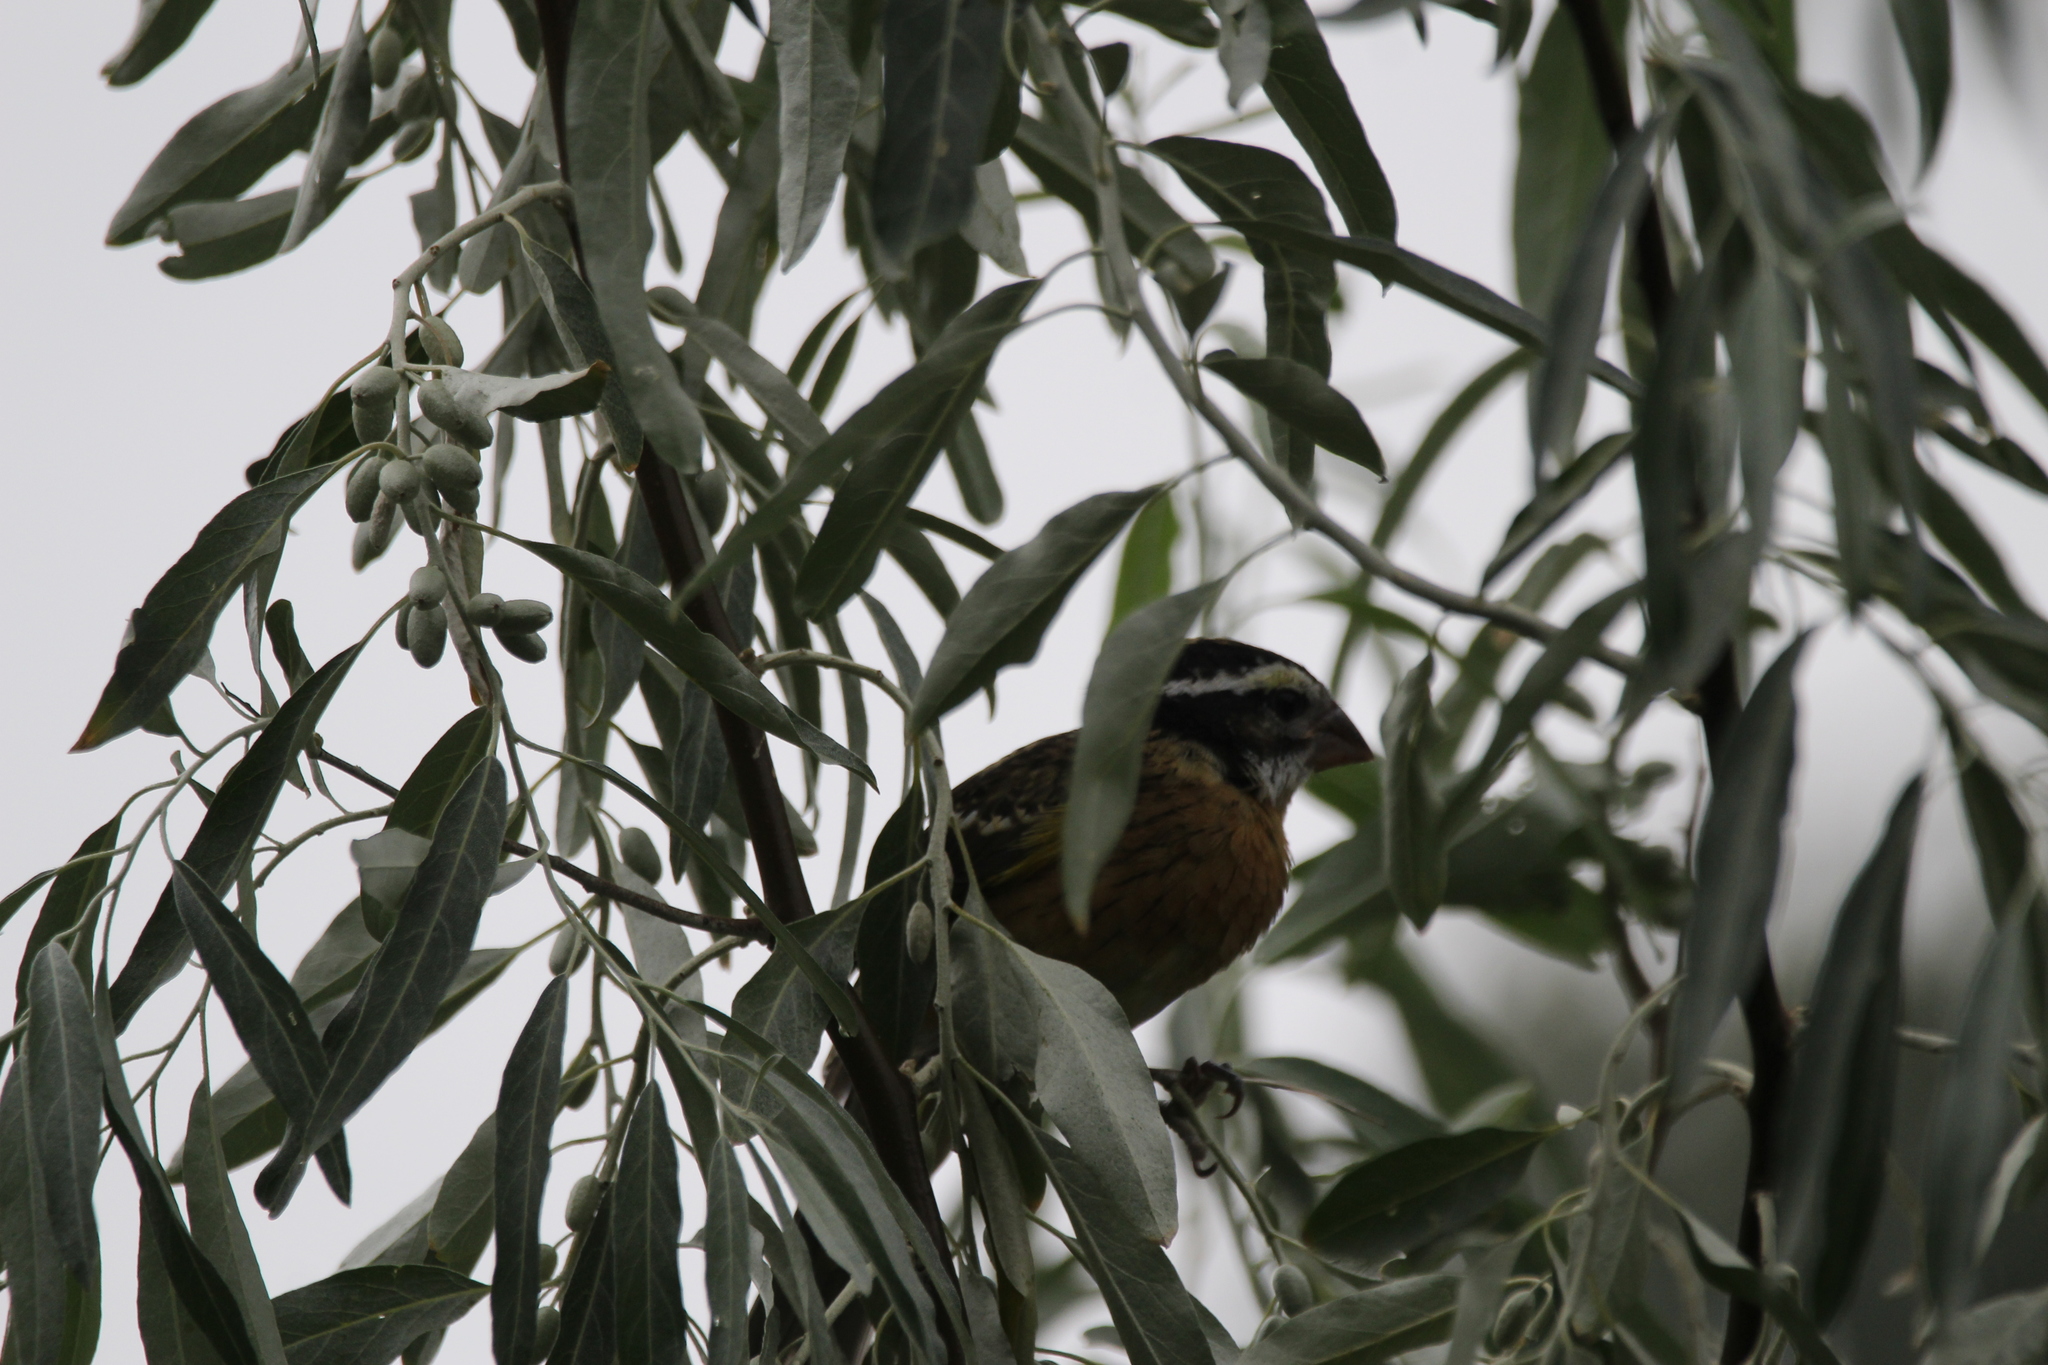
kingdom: Animalia
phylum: Chordata
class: Aves
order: Passeriformes
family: Cardinalidae
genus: Pheucticus
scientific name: Pheucticus melanocephalus
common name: Black-headed grosbeak
